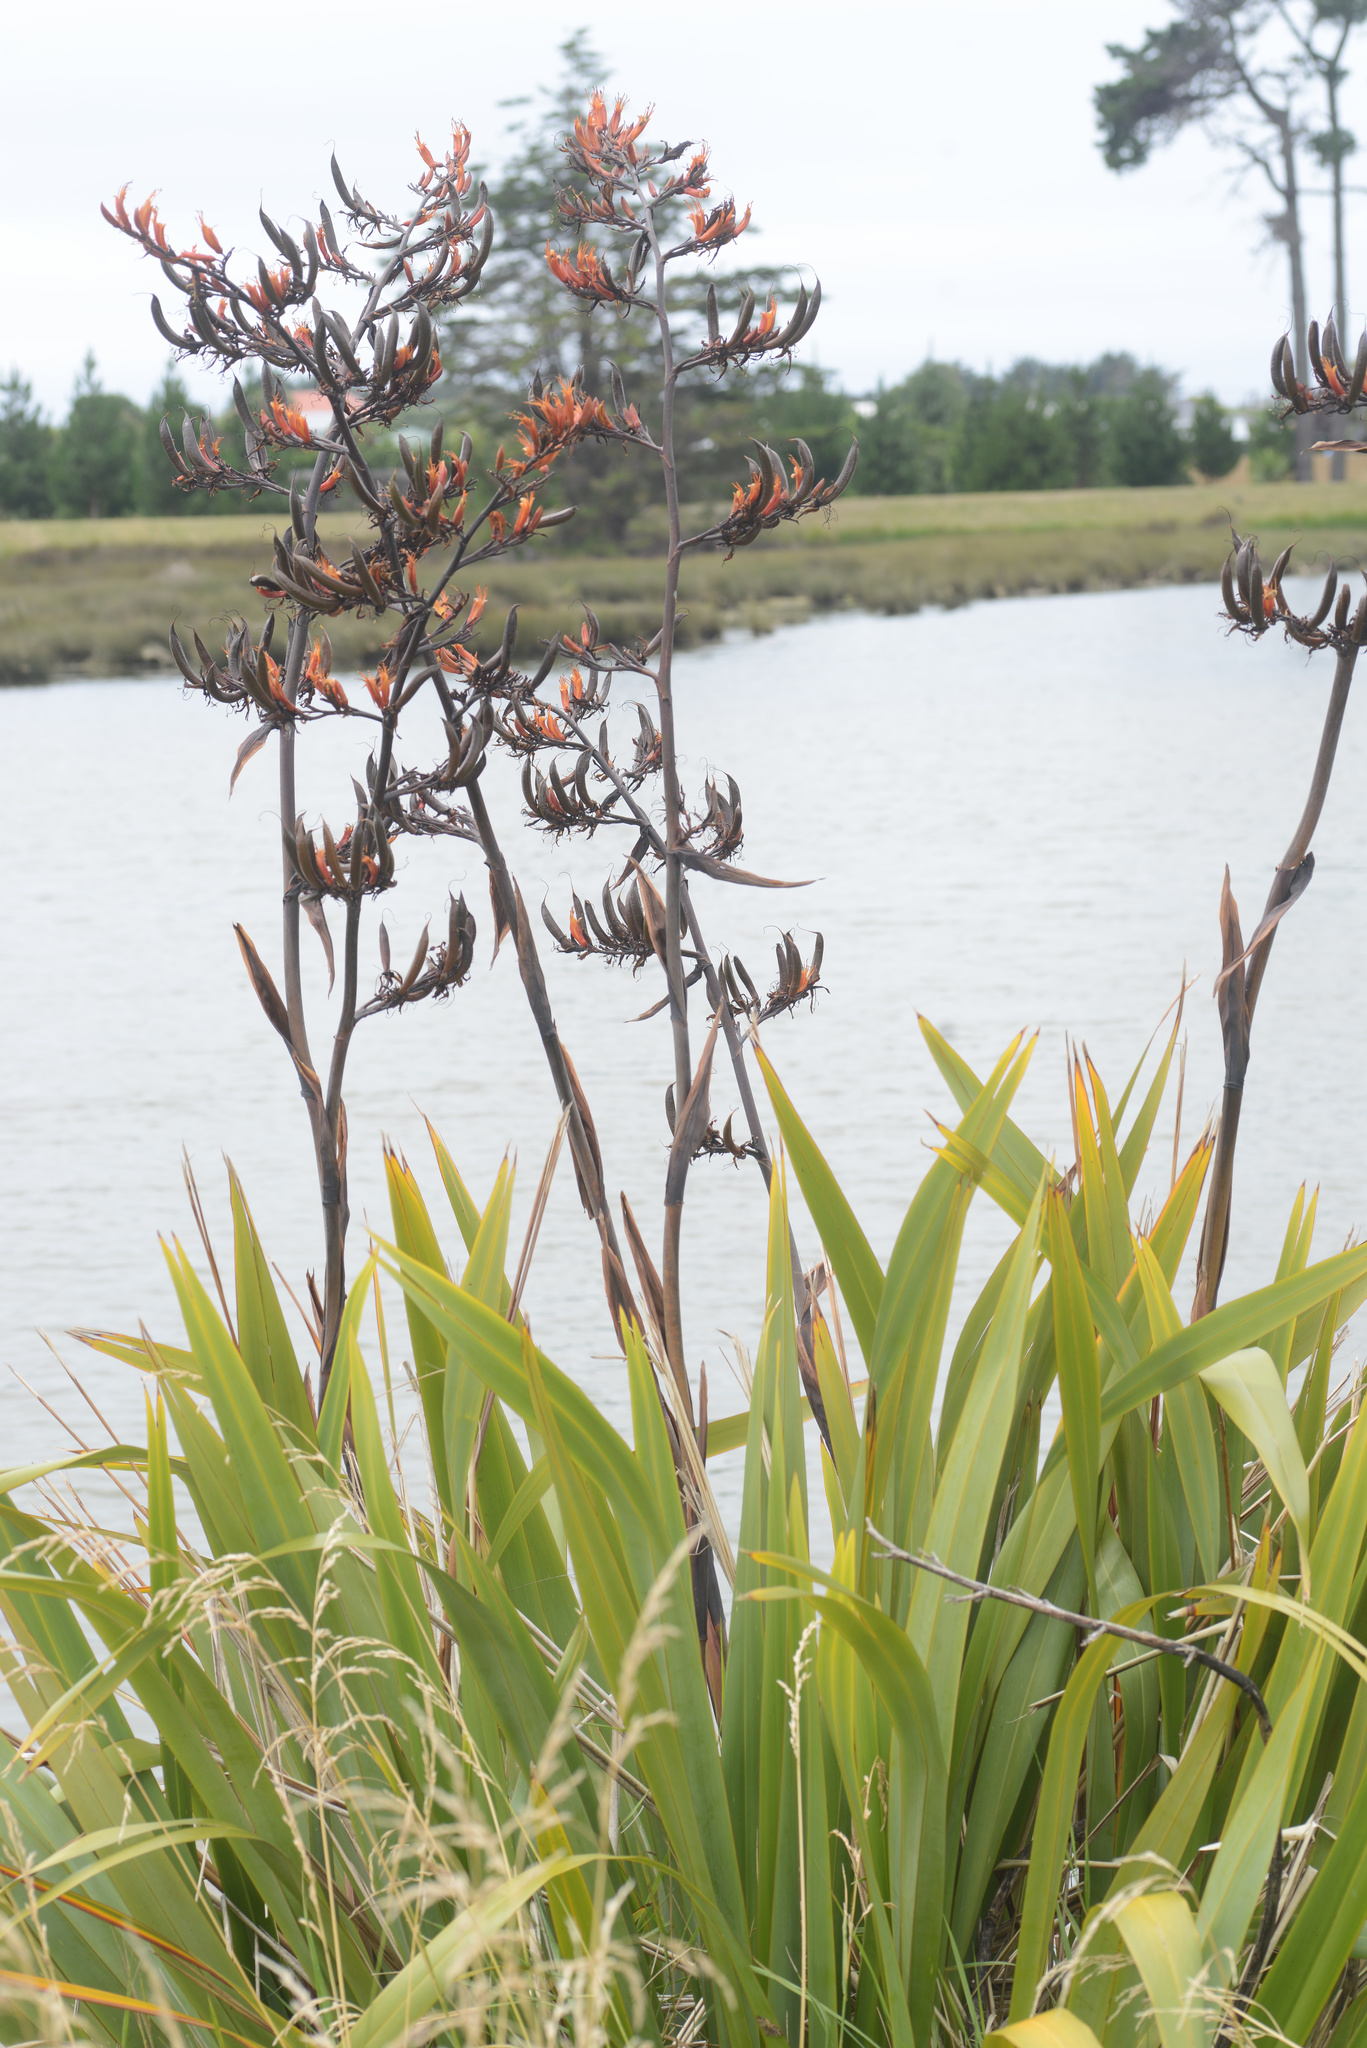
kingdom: Plantae
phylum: Tracheophyta
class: Liliopsida
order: Asparagales
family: Asphodelaceae
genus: Phormium
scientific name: Phormium tenax
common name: New zealand flax
